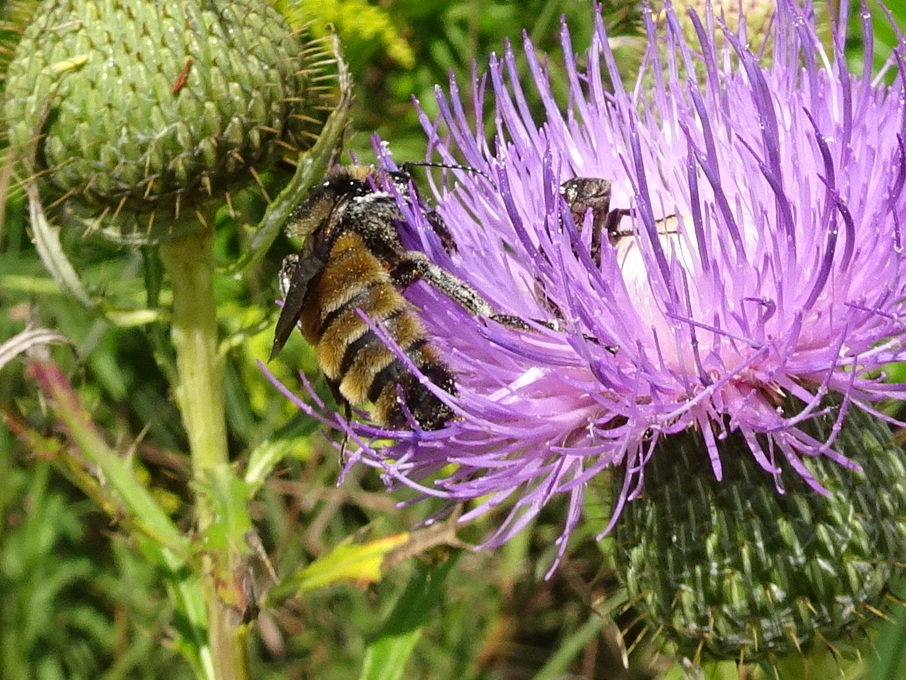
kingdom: Animalia
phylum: Arthropoda
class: Insecta
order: Hymenoptera
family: Apidae
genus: Bombus
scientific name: Bombus pensylvanicus
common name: Bumble bee
